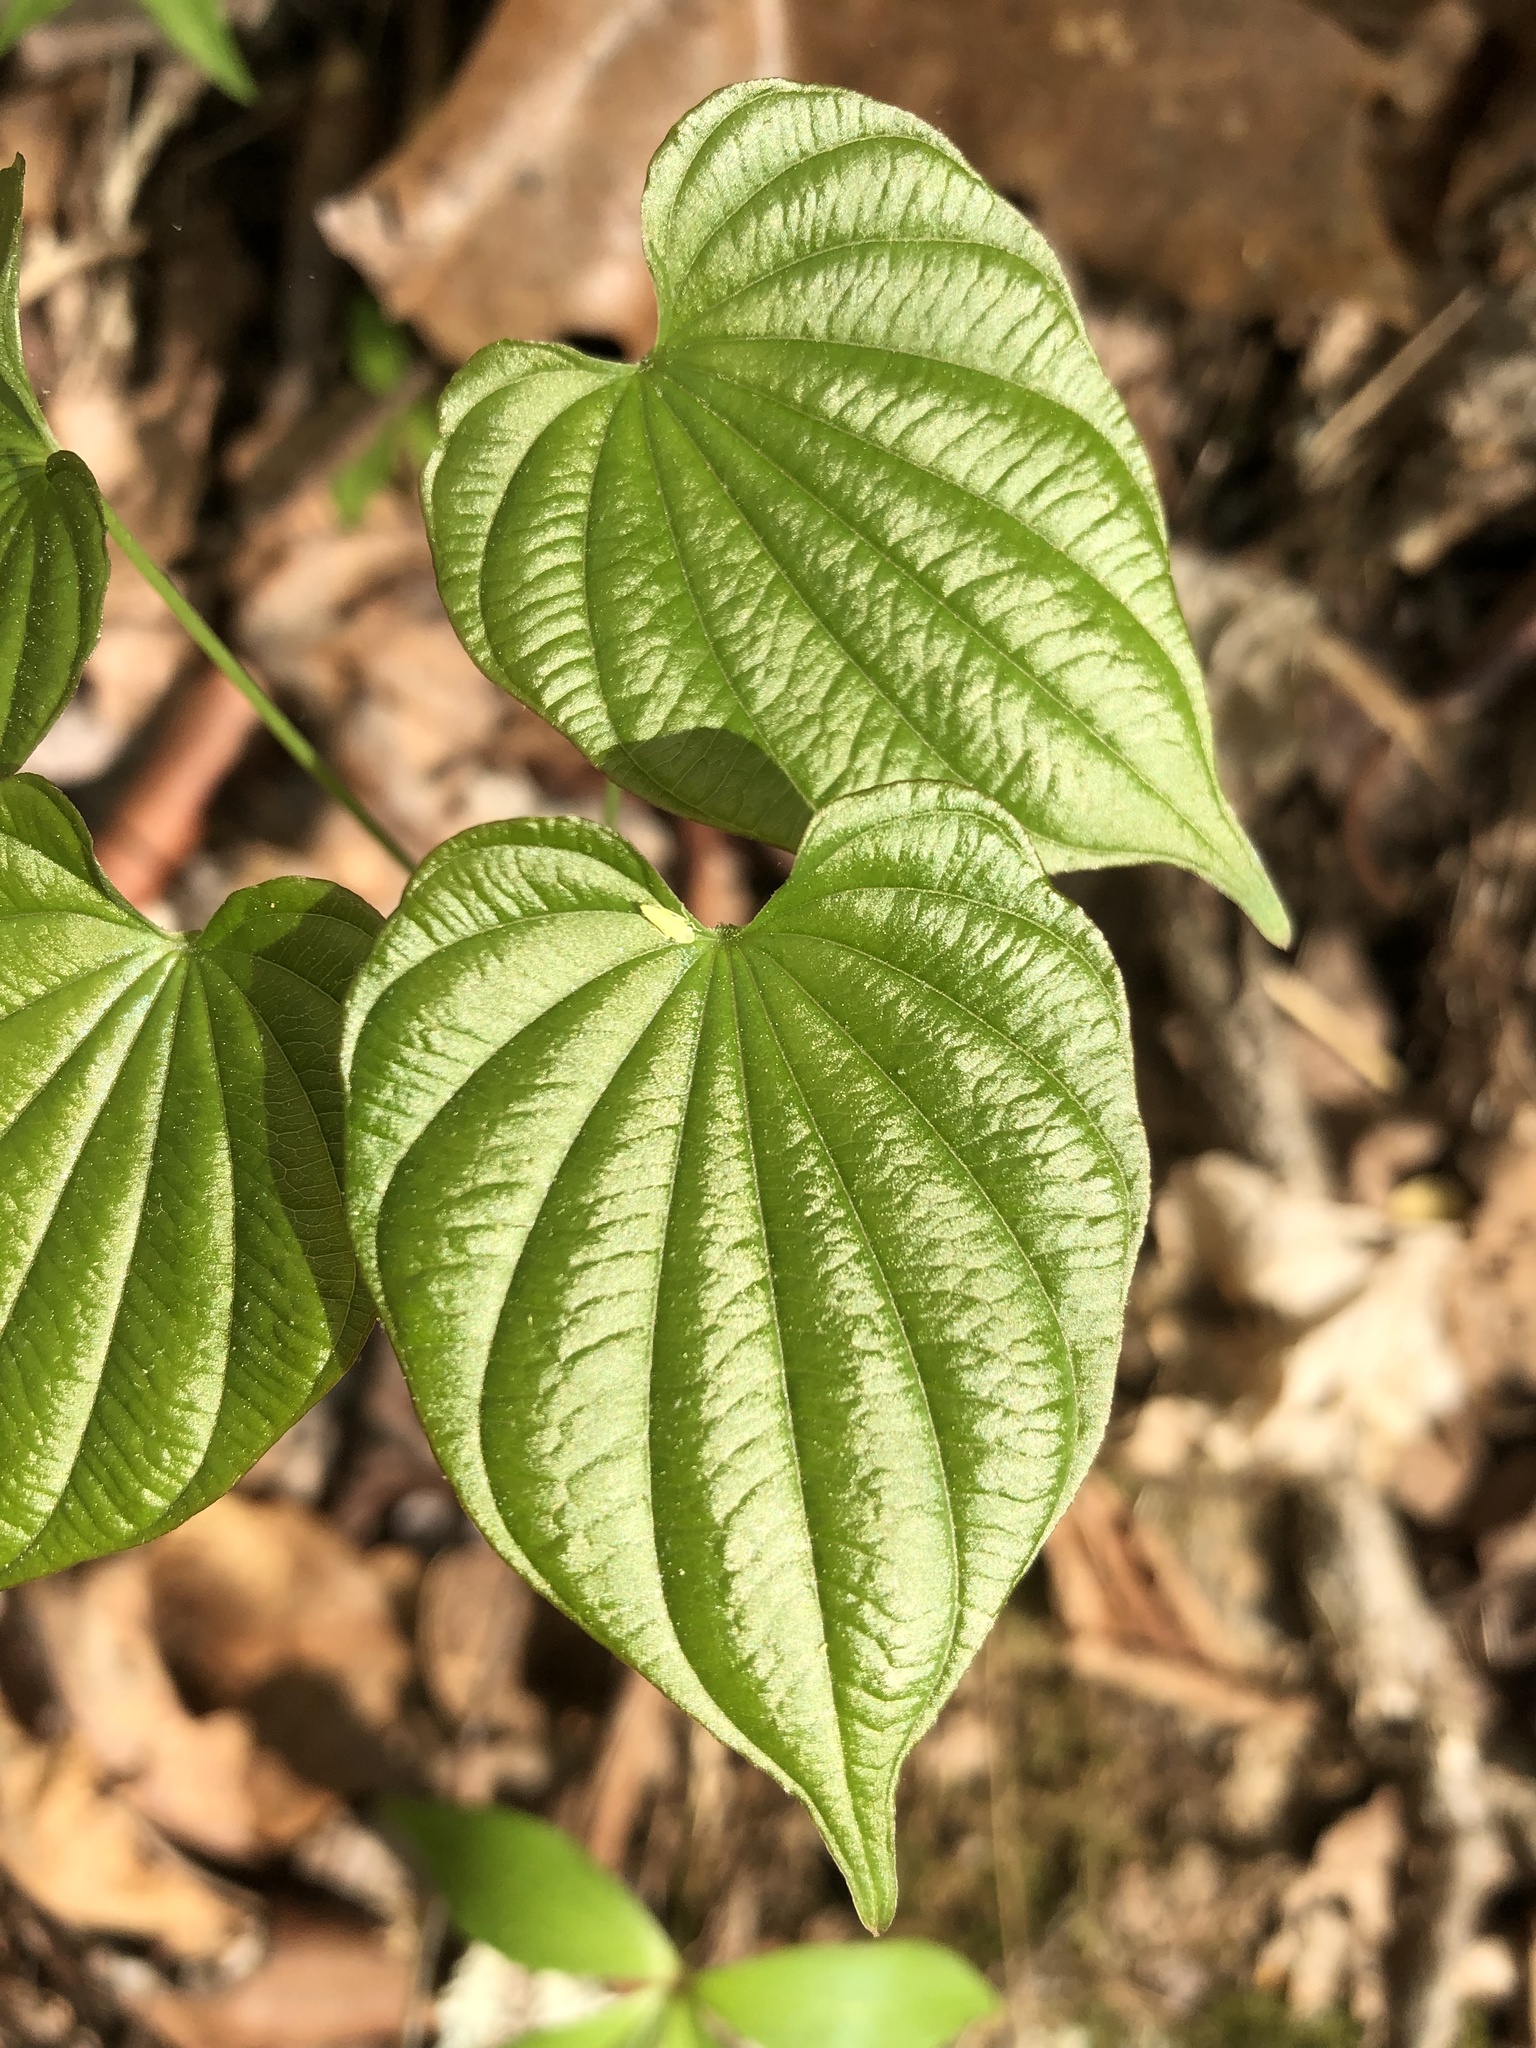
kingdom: Plantae
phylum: Tracheophyta
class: Liliopsida
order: Dioscoreales
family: Dioscoreaceae
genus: Dioscorea
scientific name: Dioscorea villosa
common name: Wild yam
